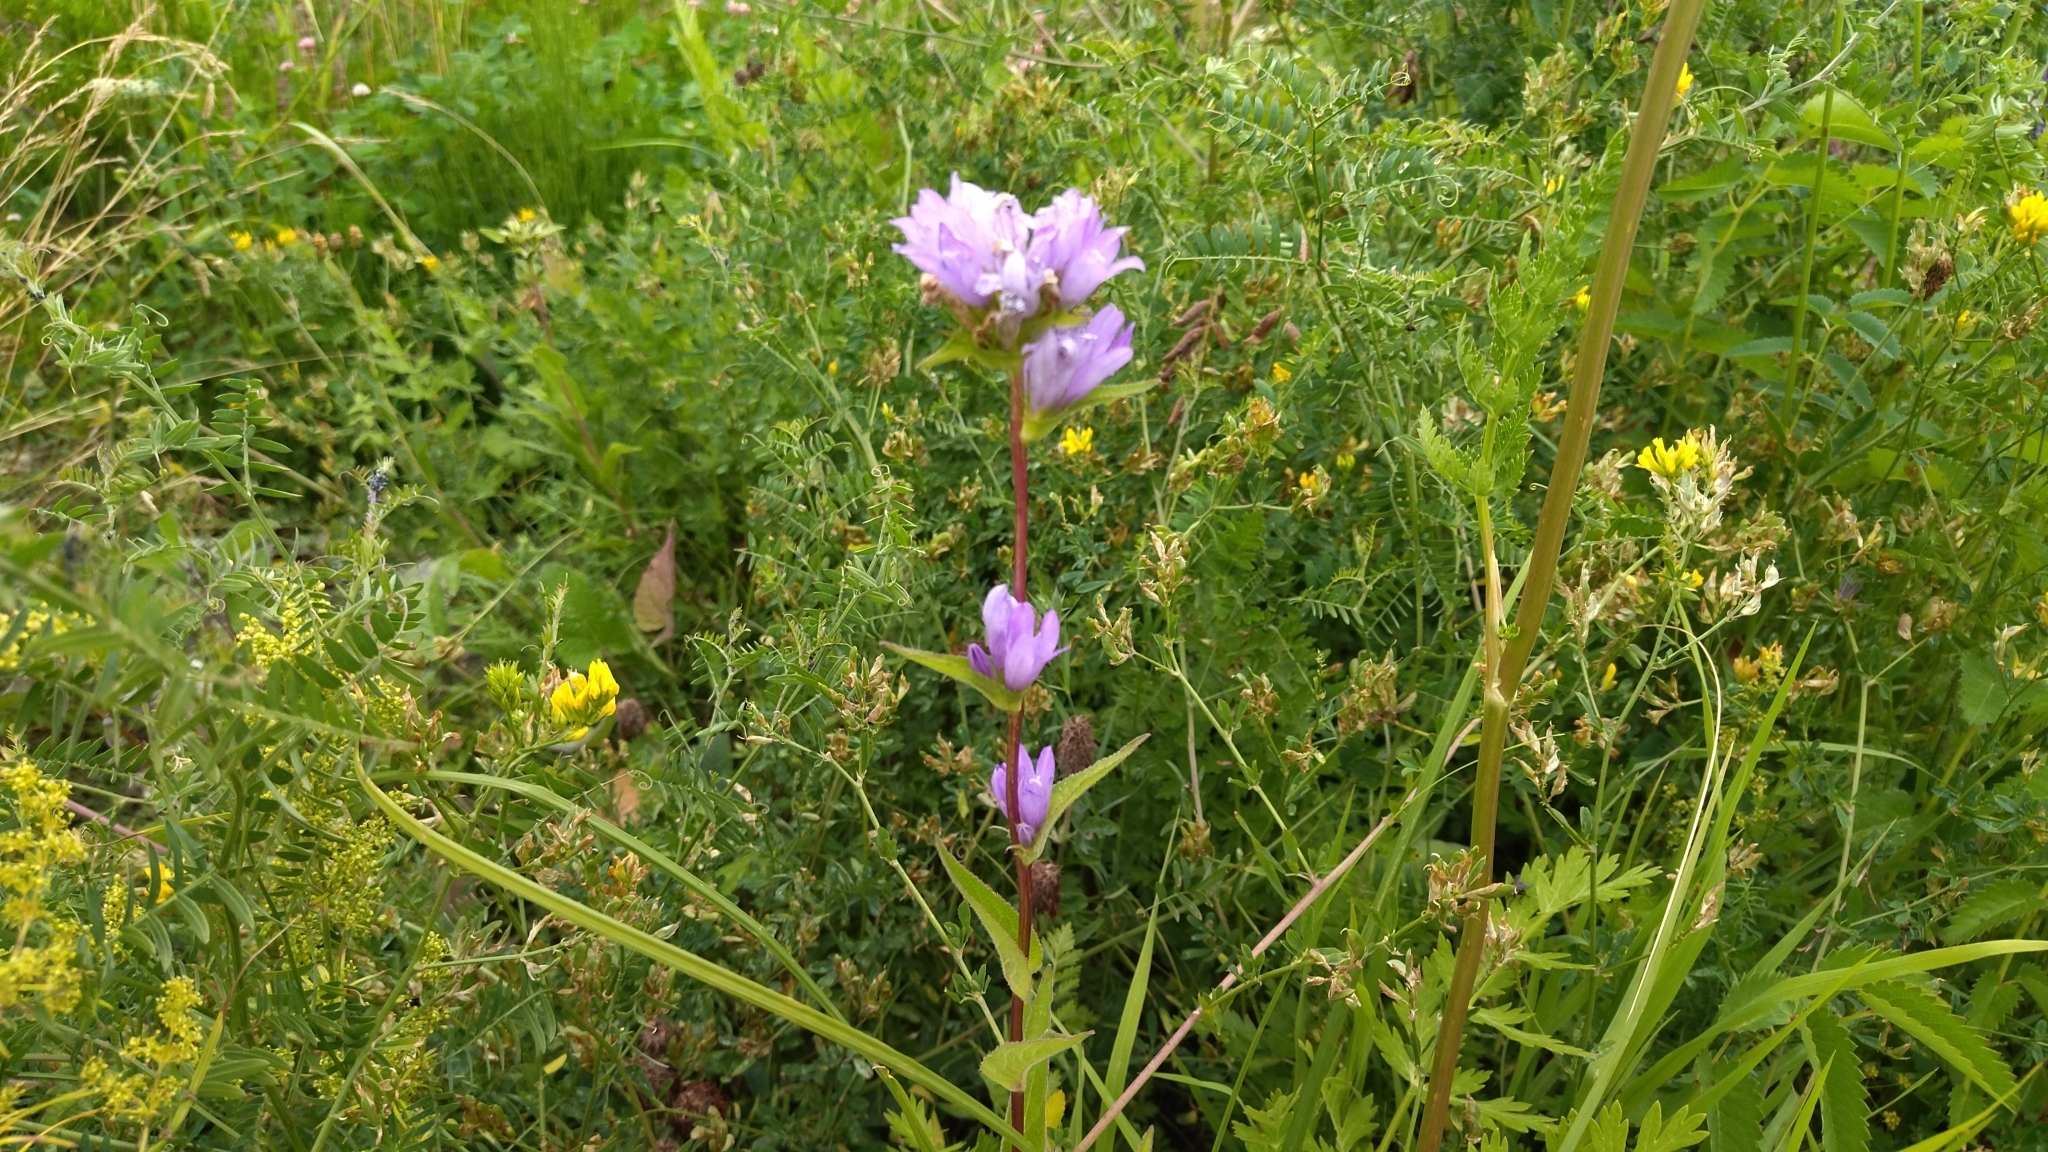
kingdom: Plantae
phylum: Tracheophyta
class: Magnoliopsida
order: Asterales
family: Campanulaceae
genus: Campanula
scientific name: Campanula glomerata
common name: Clustered bellflower
